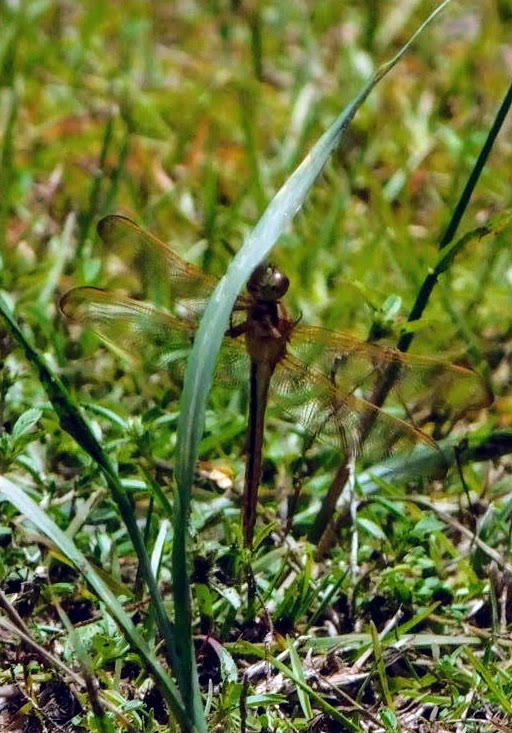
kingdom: Animalia
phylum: Arthropoda
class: Insecta
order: Odonata
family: Libellulidae
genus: Libellula
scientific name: Libellula needhami
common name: Needham's skimmer
